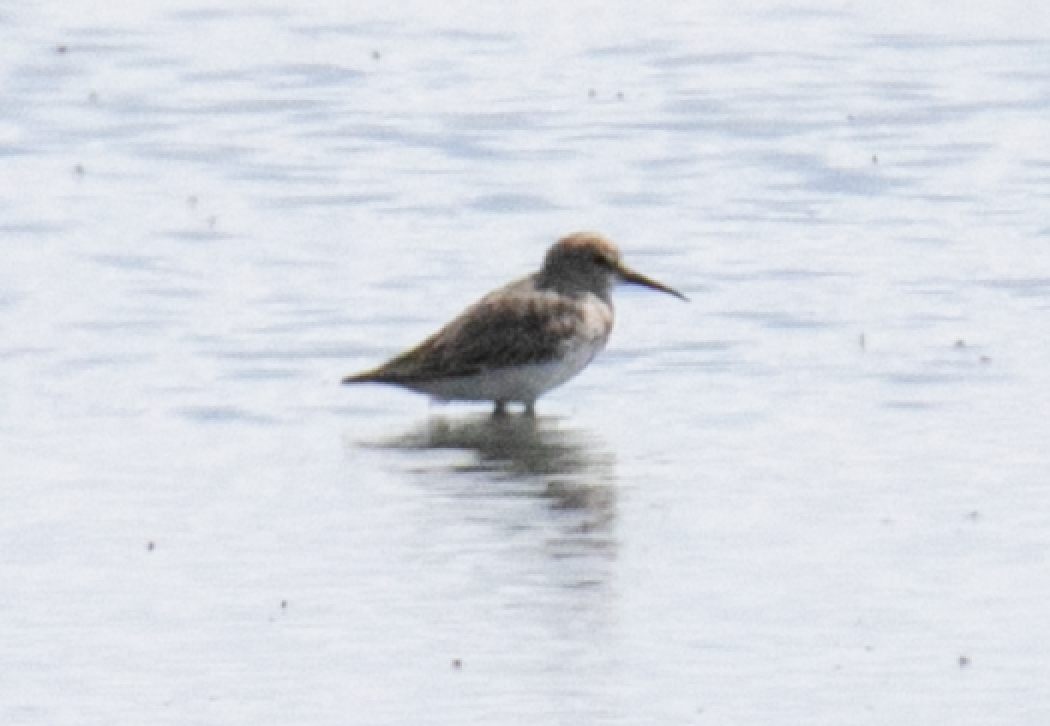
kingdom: Animalia
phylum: Chordata
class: Aves
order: Charadriiformes
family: Scolopacidae
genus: Calidris
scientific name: Calidris alpina
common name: Dunlin
